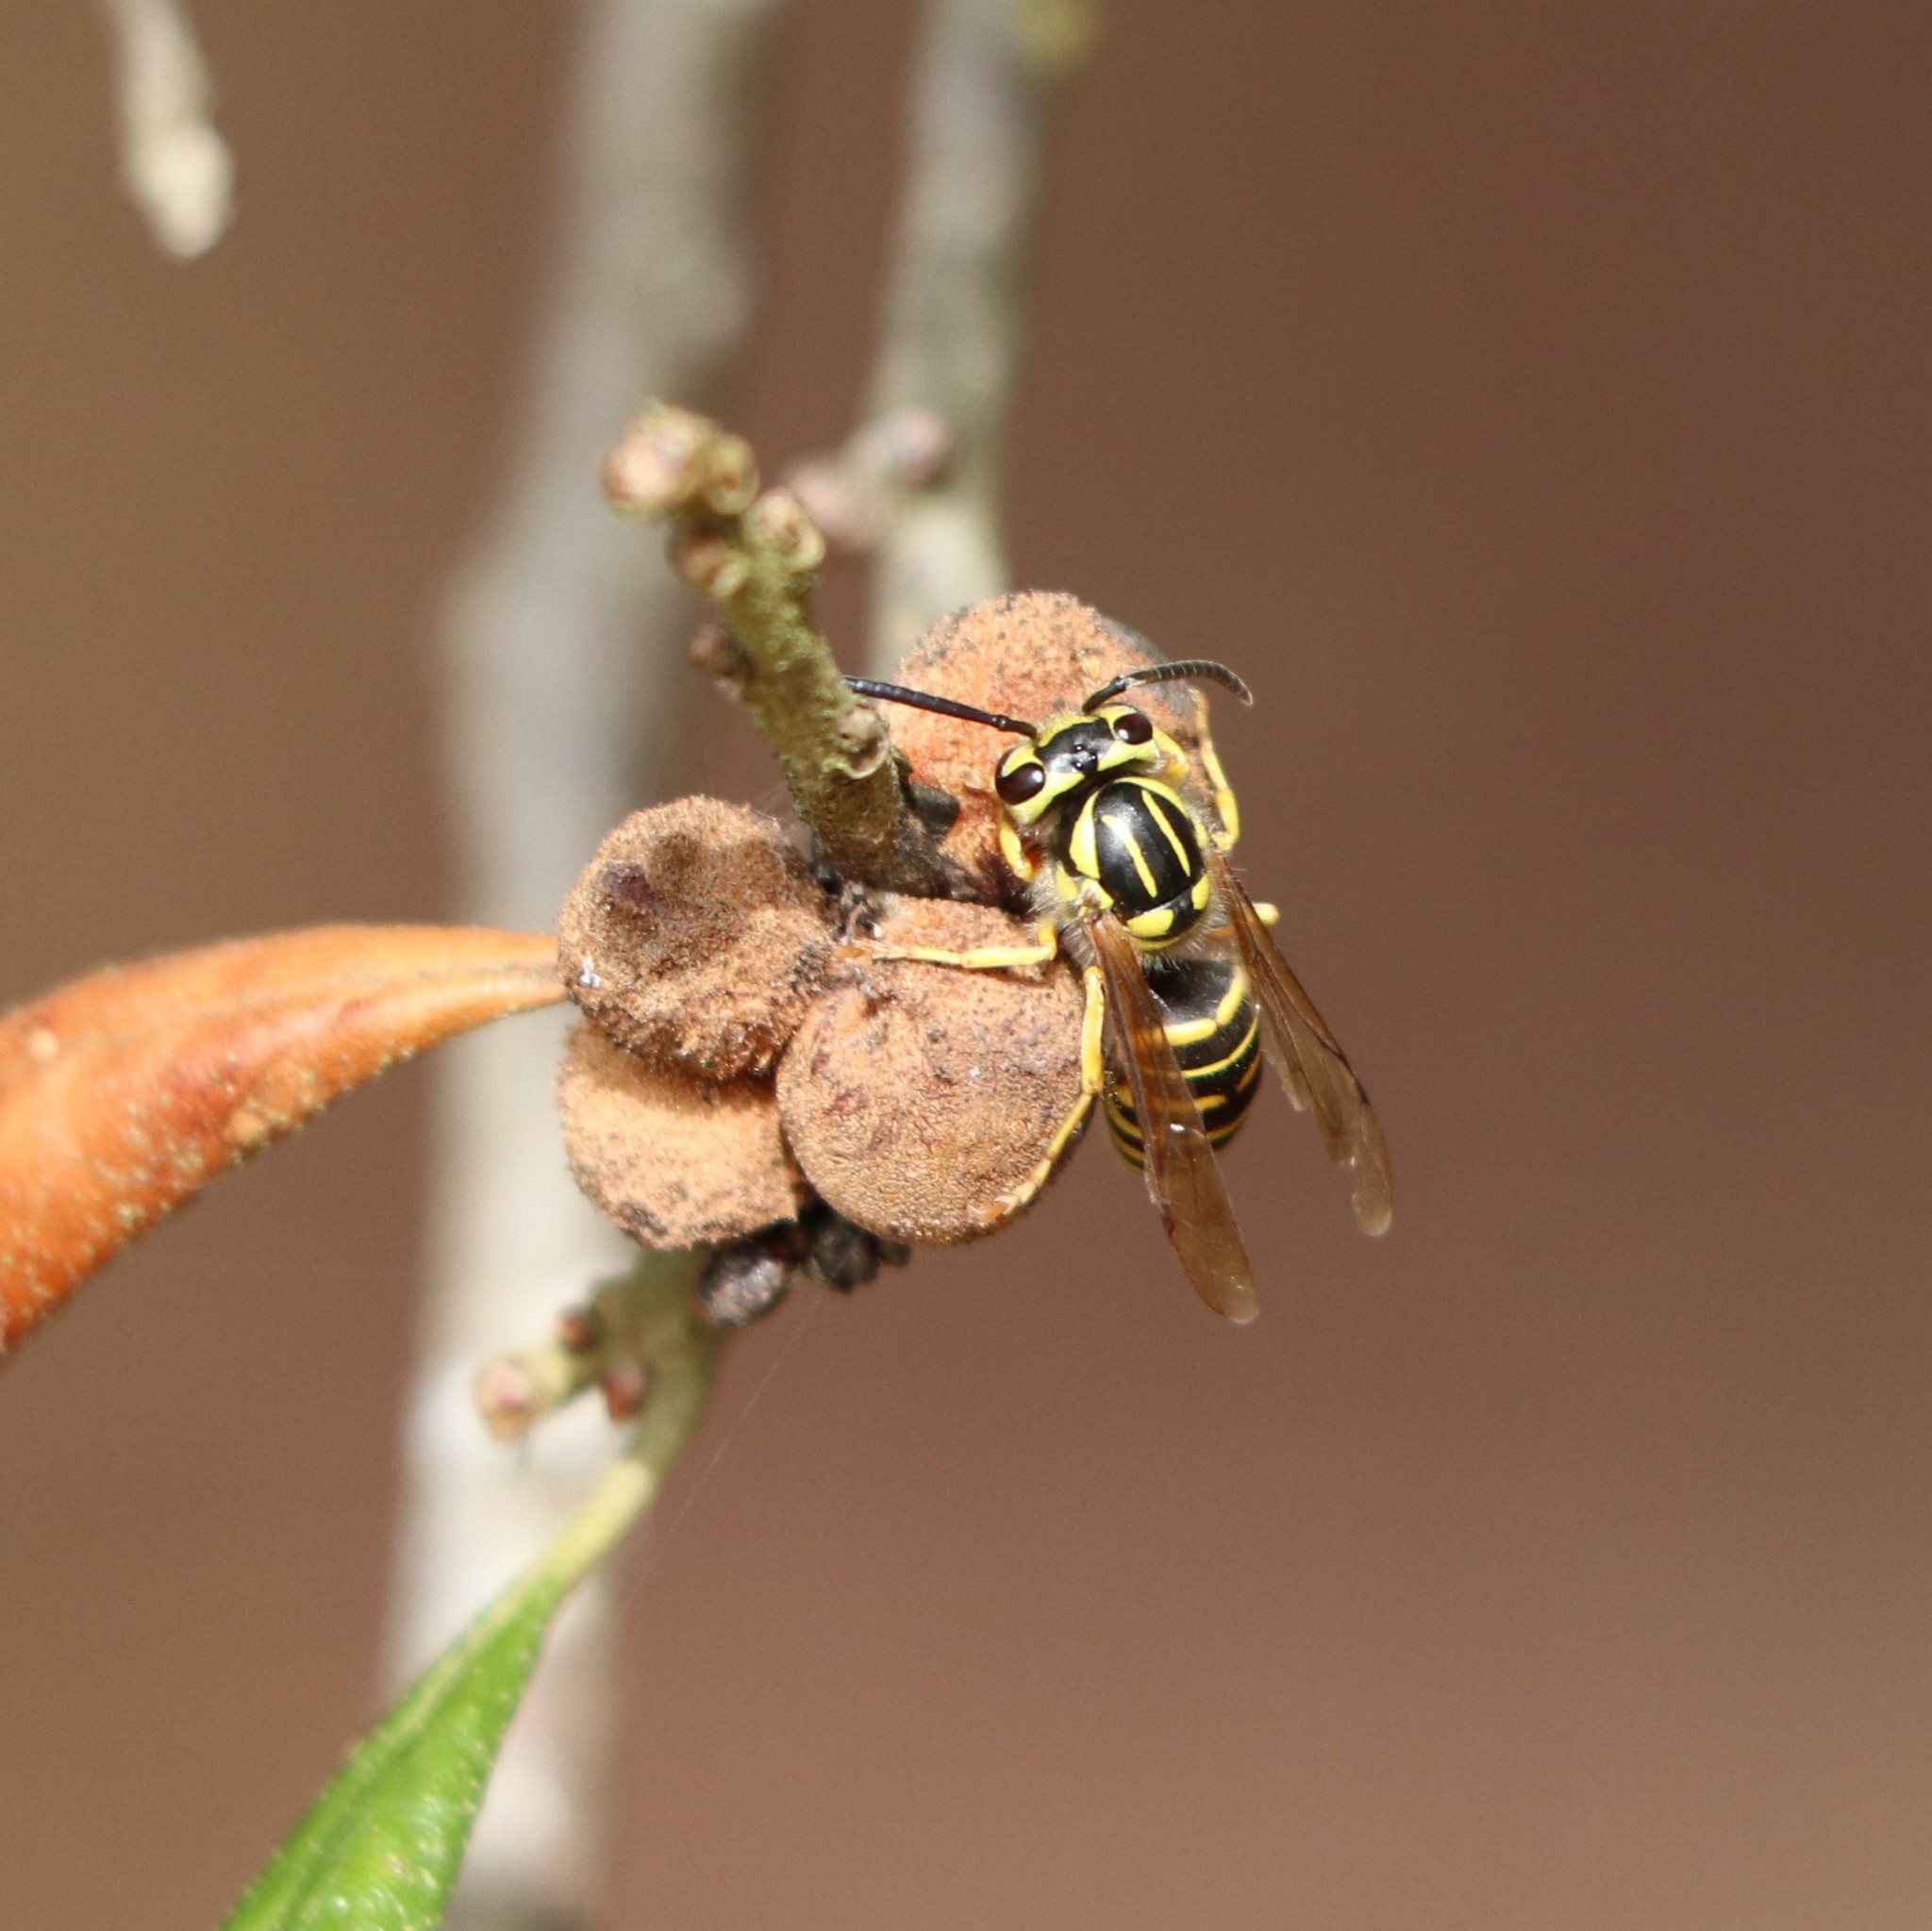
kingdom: Animalia
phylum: Arthropoda
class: Insecta
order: Hymenoptera
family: Cynipidae
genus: Disholcaspis
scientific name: Disholcaspis
